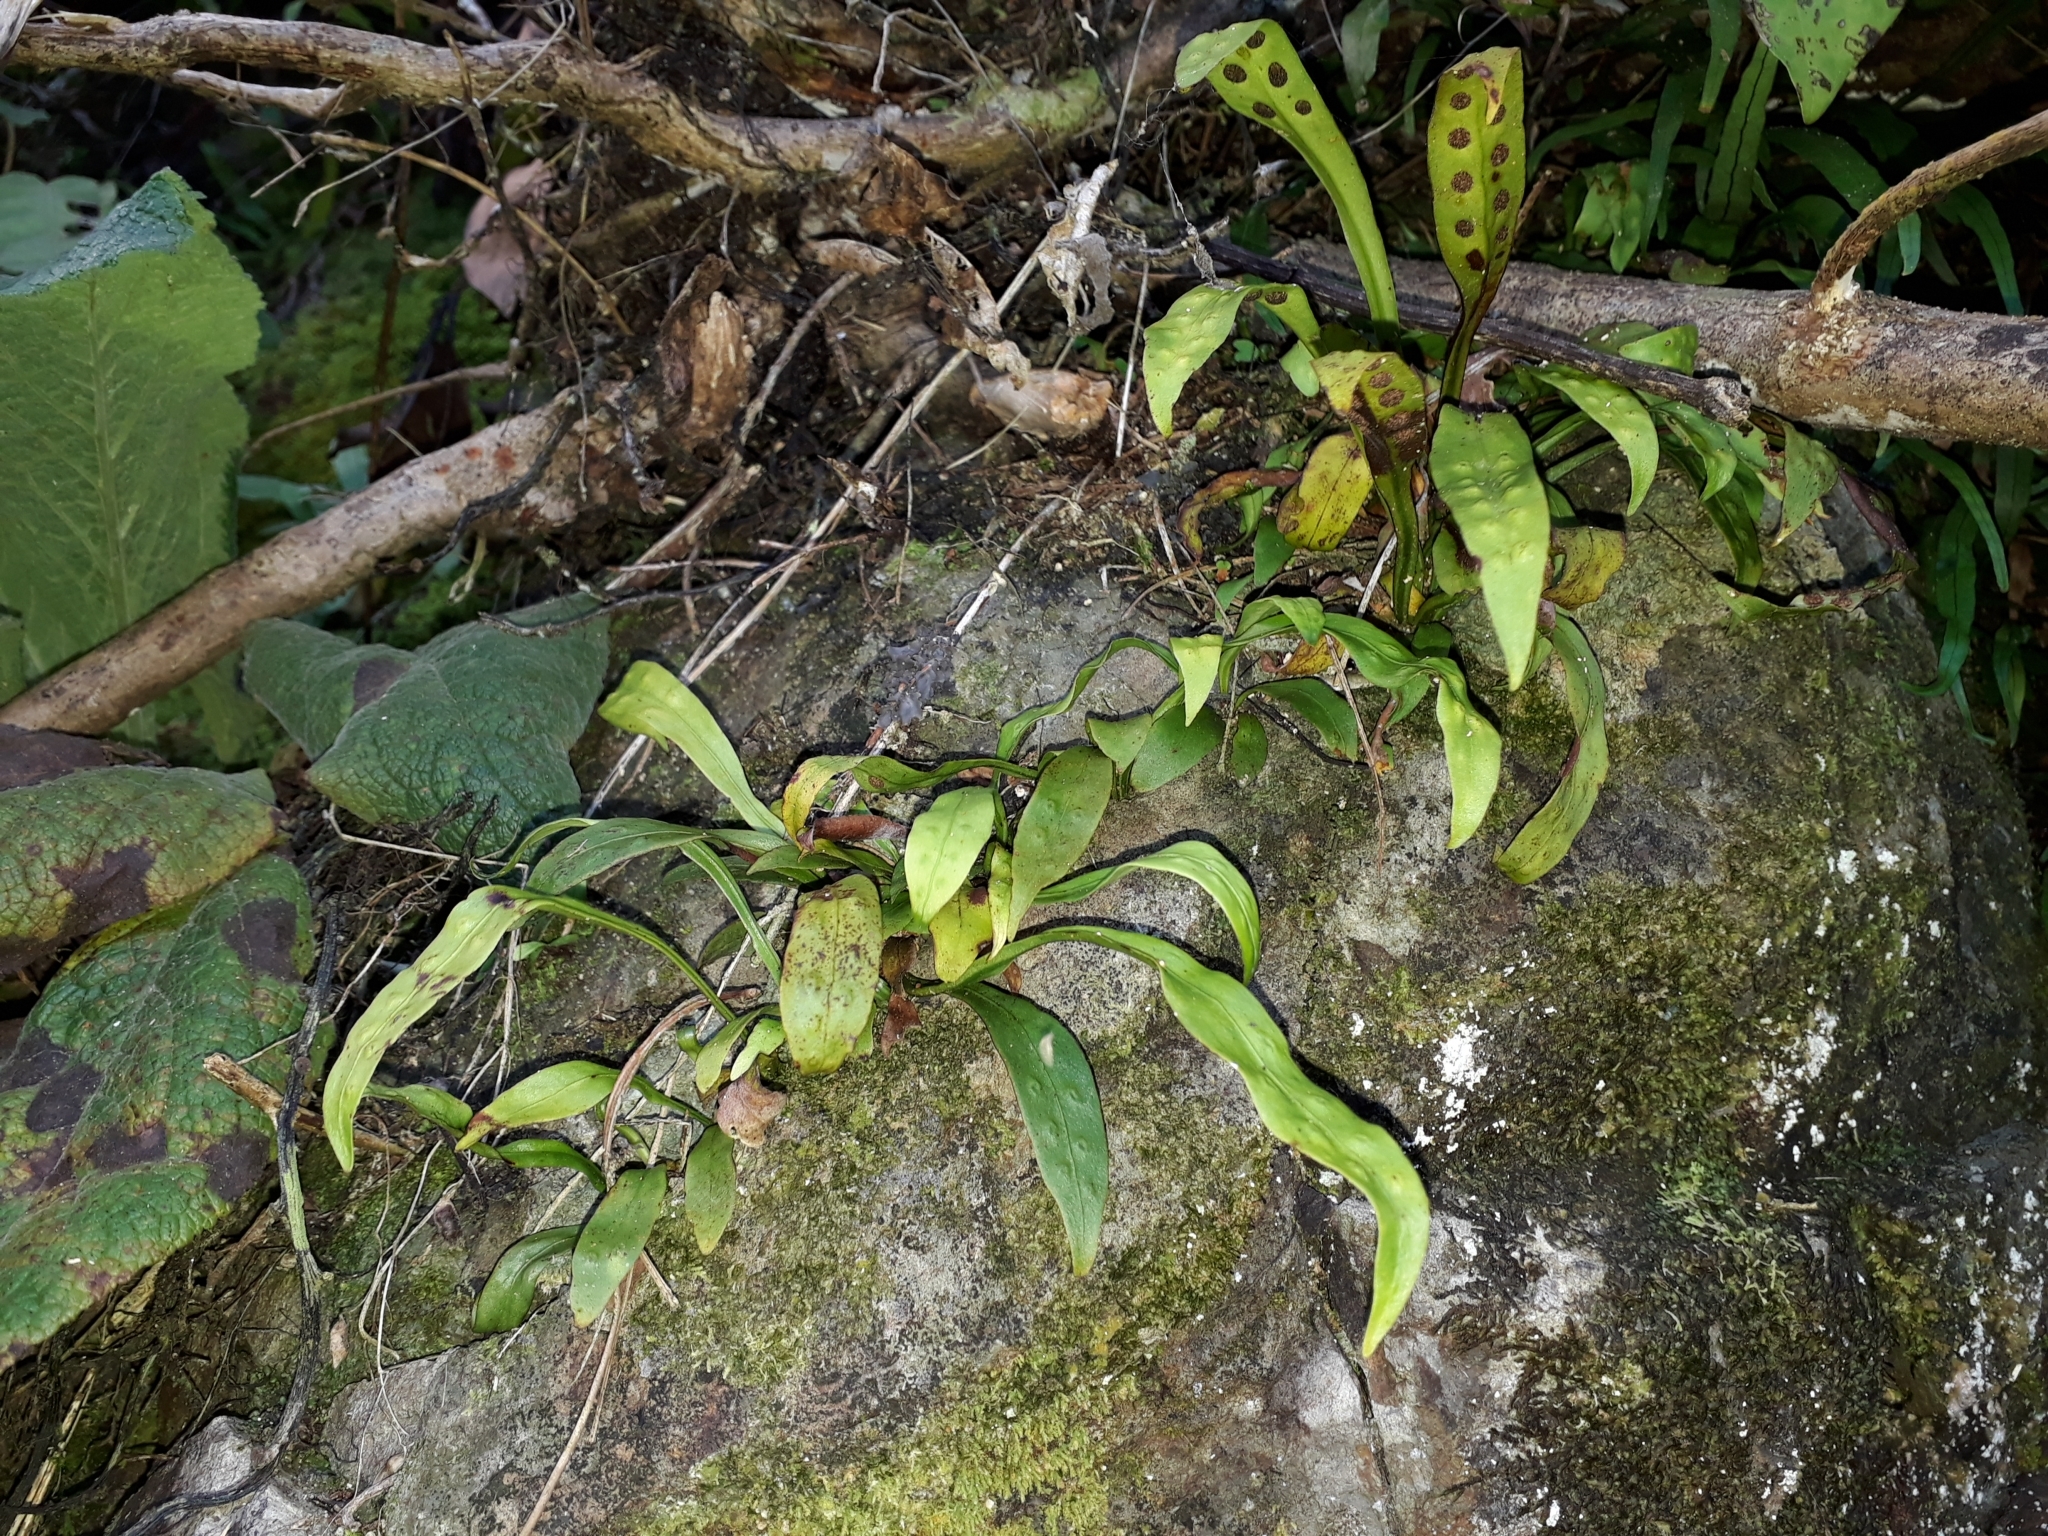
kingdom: Plantae
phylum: Tracheophyta
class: Polypodiopsida
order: Polypodiales
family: Polypodiaceae
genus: Loxogramme
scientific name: Loxogramme dictyopteris
